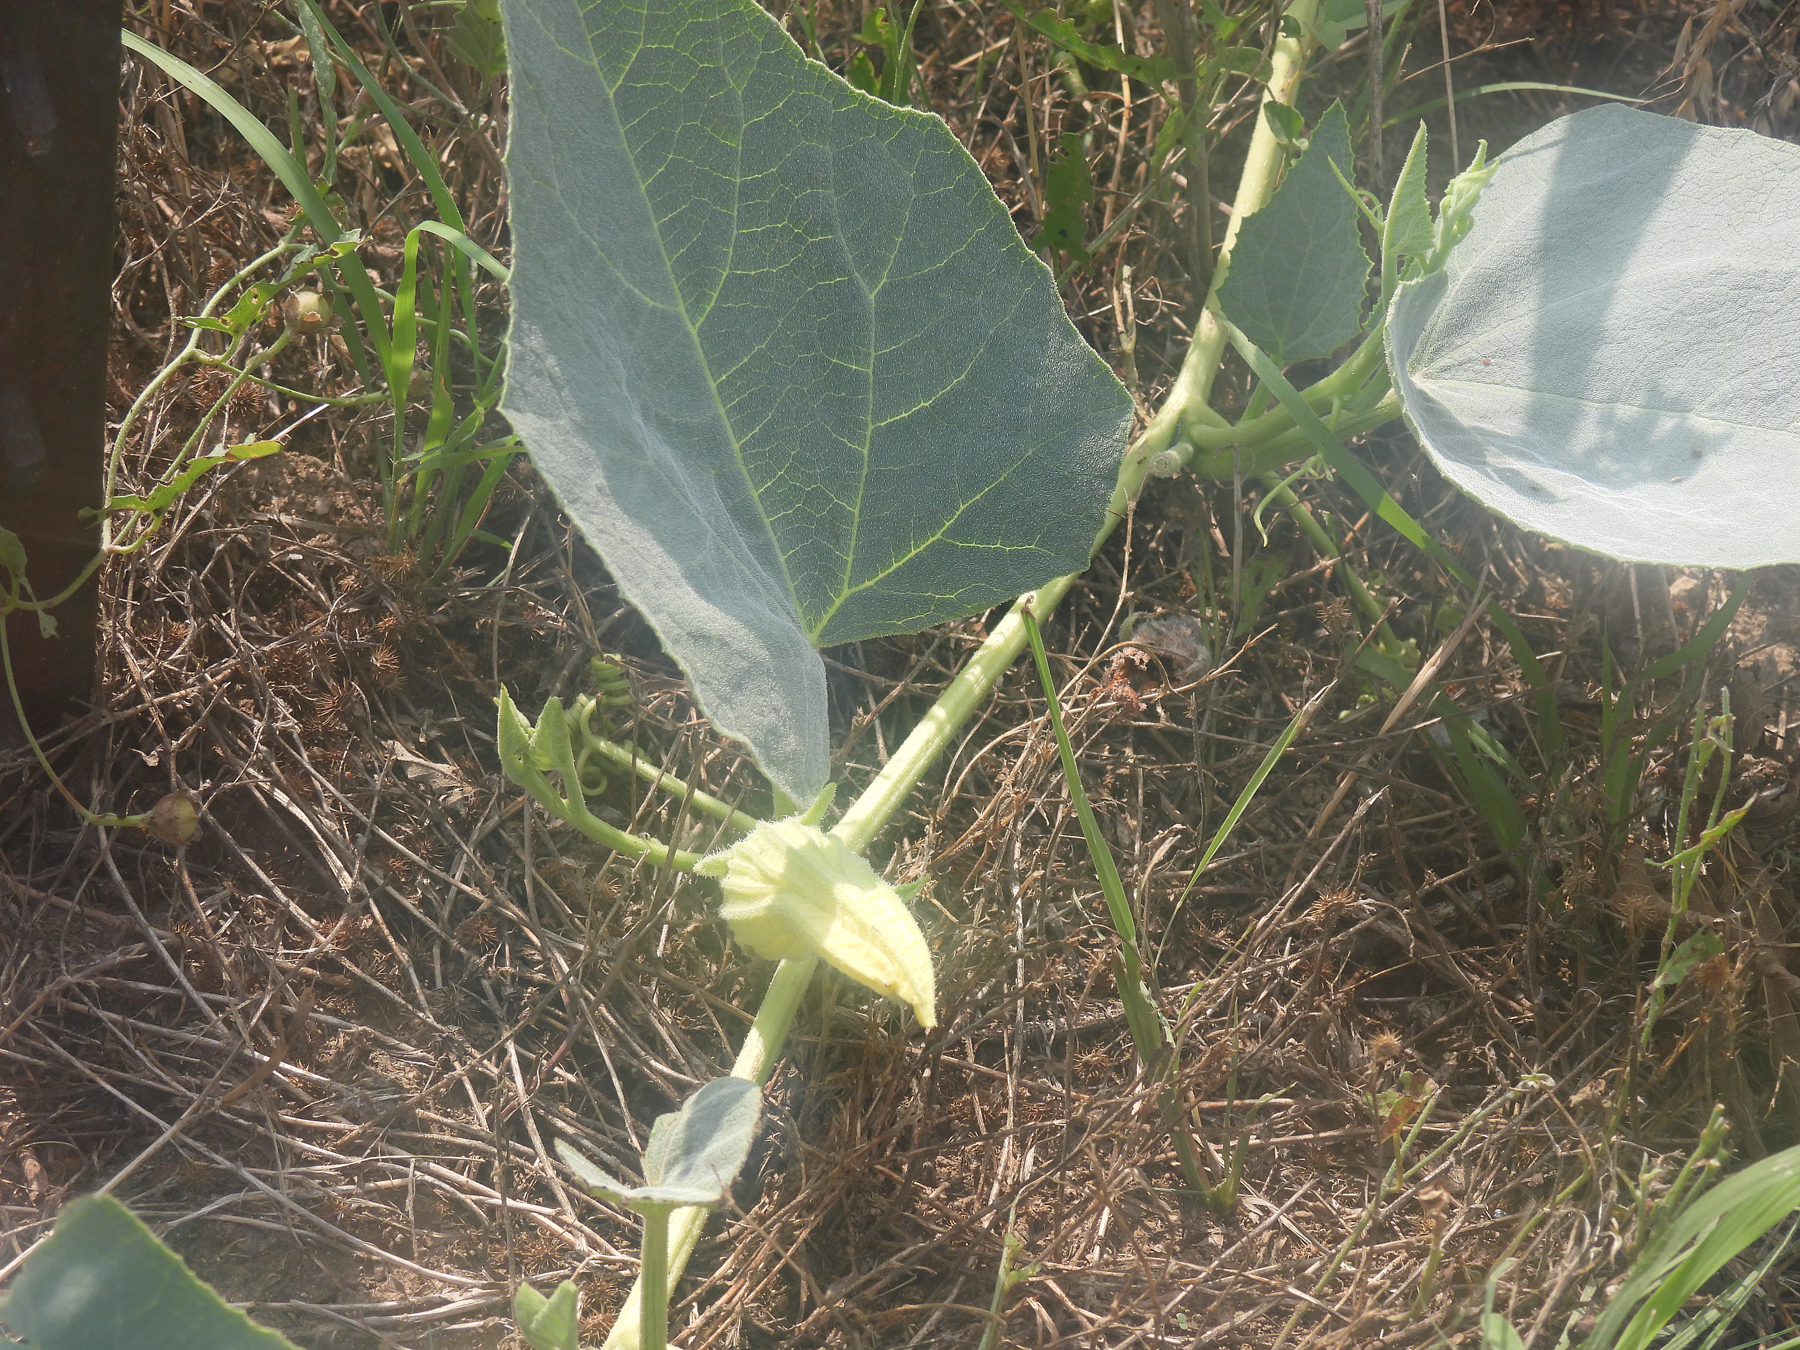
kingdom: Plantae
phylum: Tracheophyta
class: Magnoliopsida
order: Cucurbitales
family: Cucurbitaceae
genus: Cucurbita
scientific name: Cucurbita foetidissima
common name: Buffalo gourd
